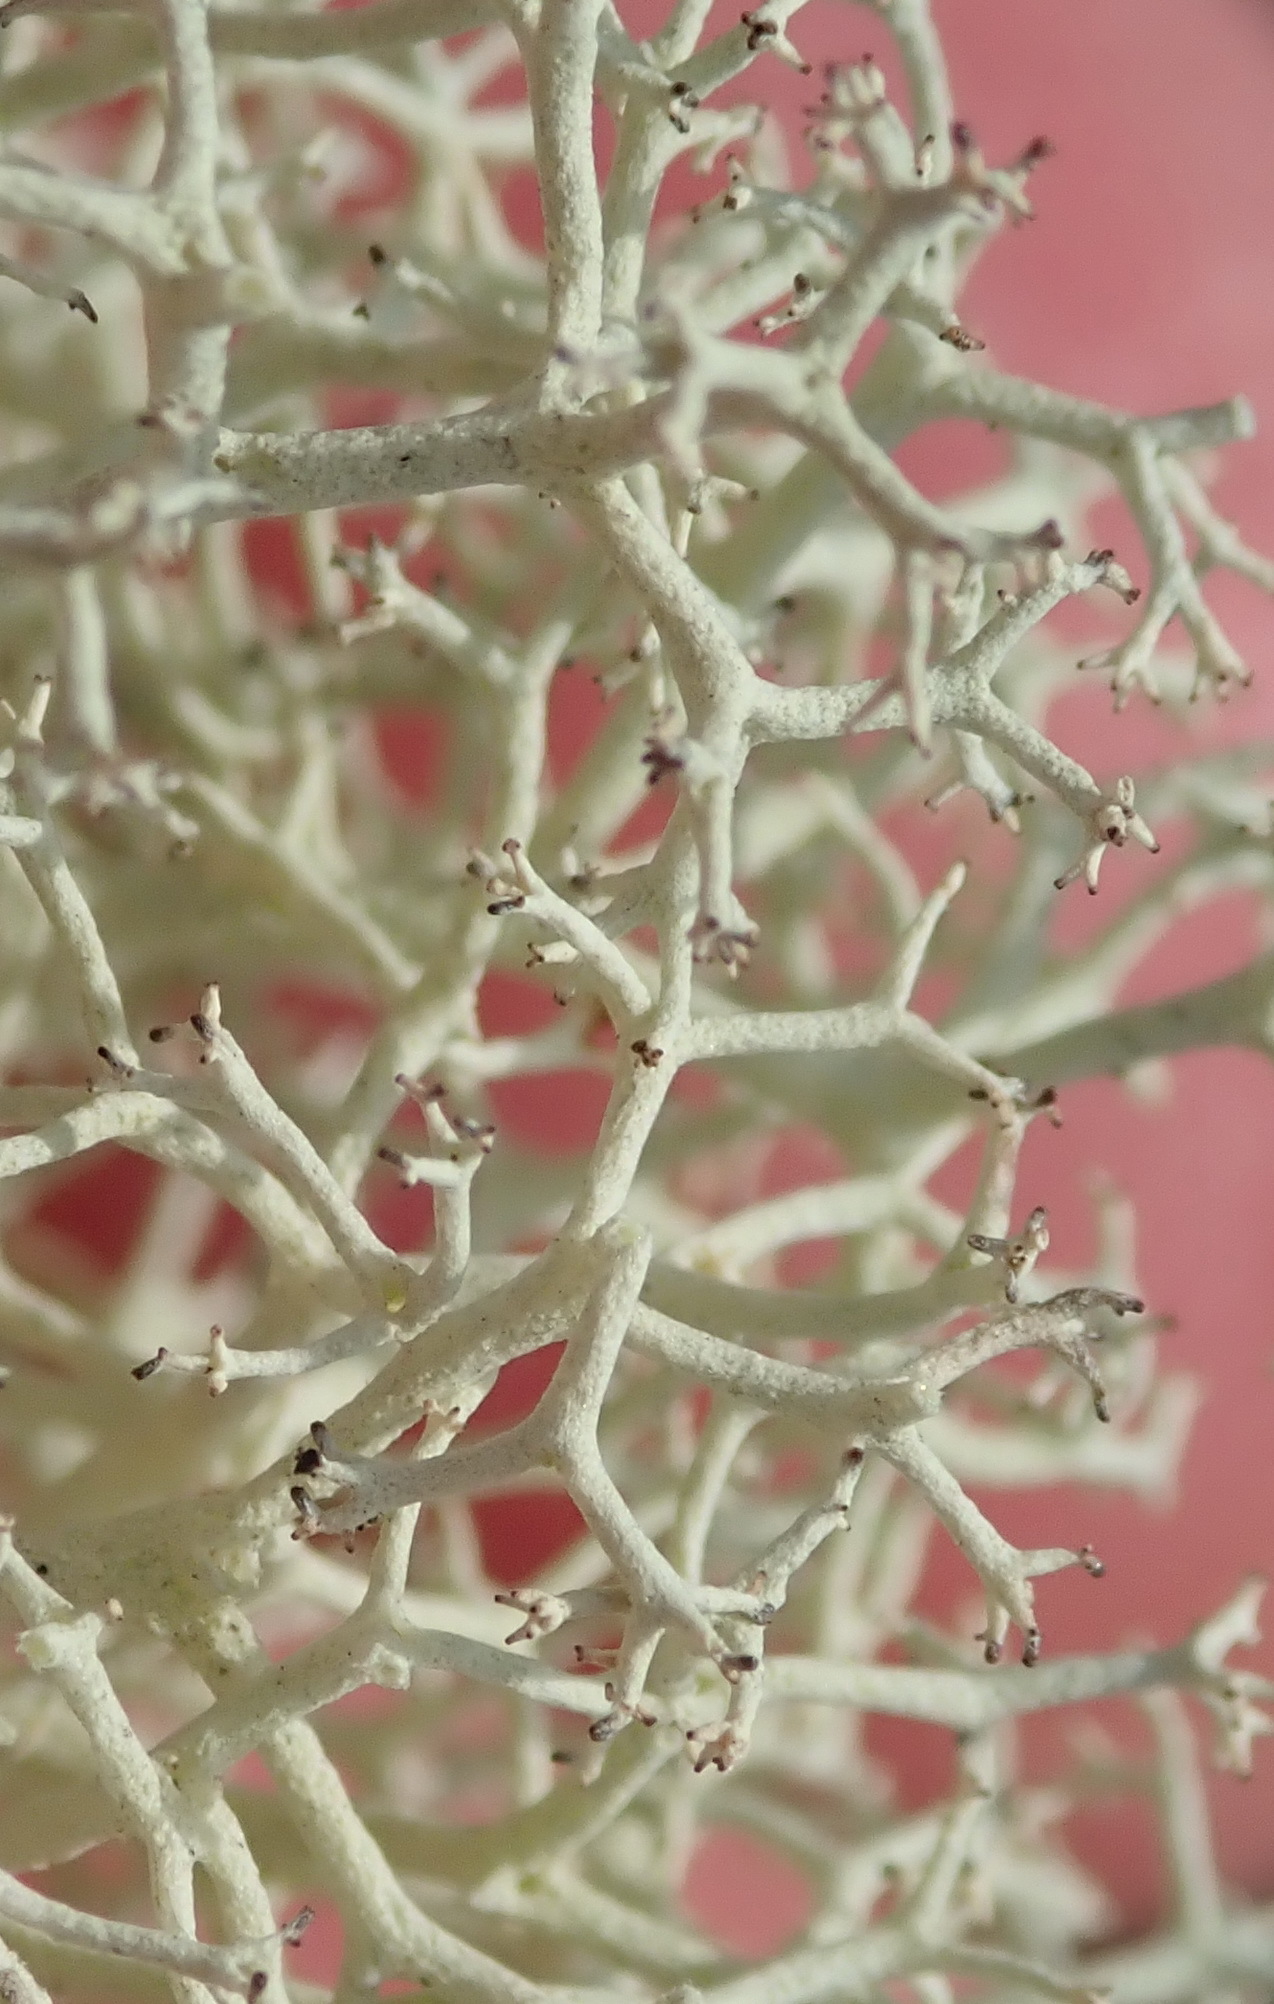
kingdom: Fungi
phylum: Ascomycota
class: Lecanoromycetes
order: Lecanorales
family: Cladoniaceae
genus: Cladonia
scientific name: Cladonia confusa
